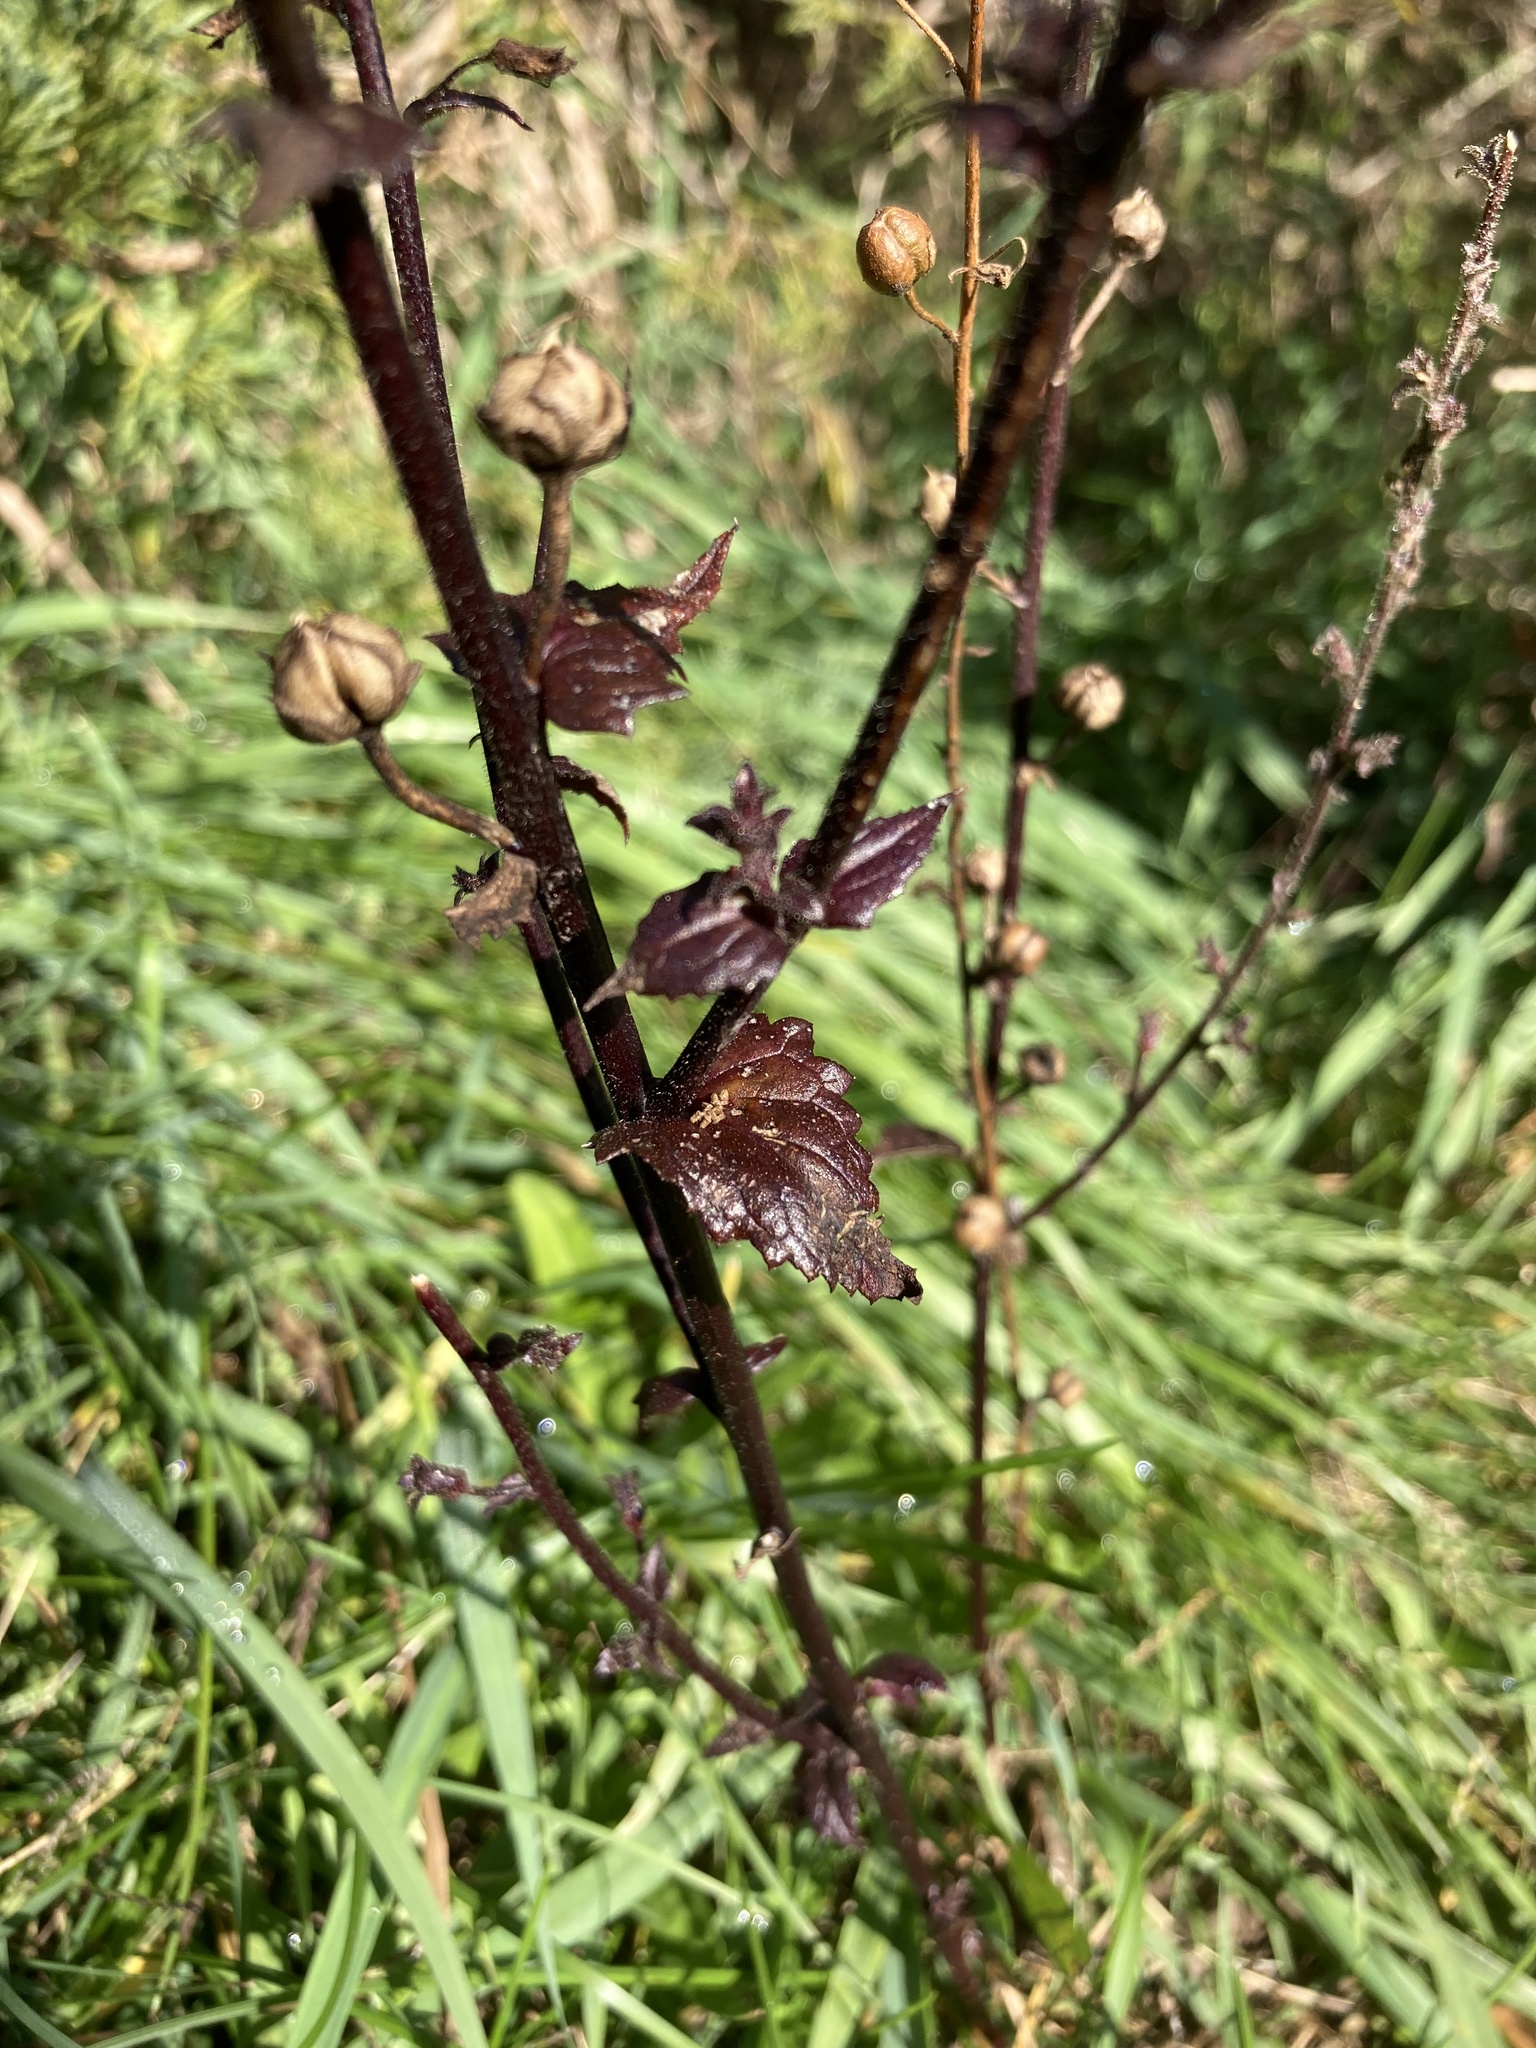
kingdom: Plantae
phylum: Tracheophyta
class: Magnoliopsida
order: Lamiales
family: Scrophulariaceae
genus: Verbascum
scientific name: Verbascum blattaria
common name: Moth mullein
